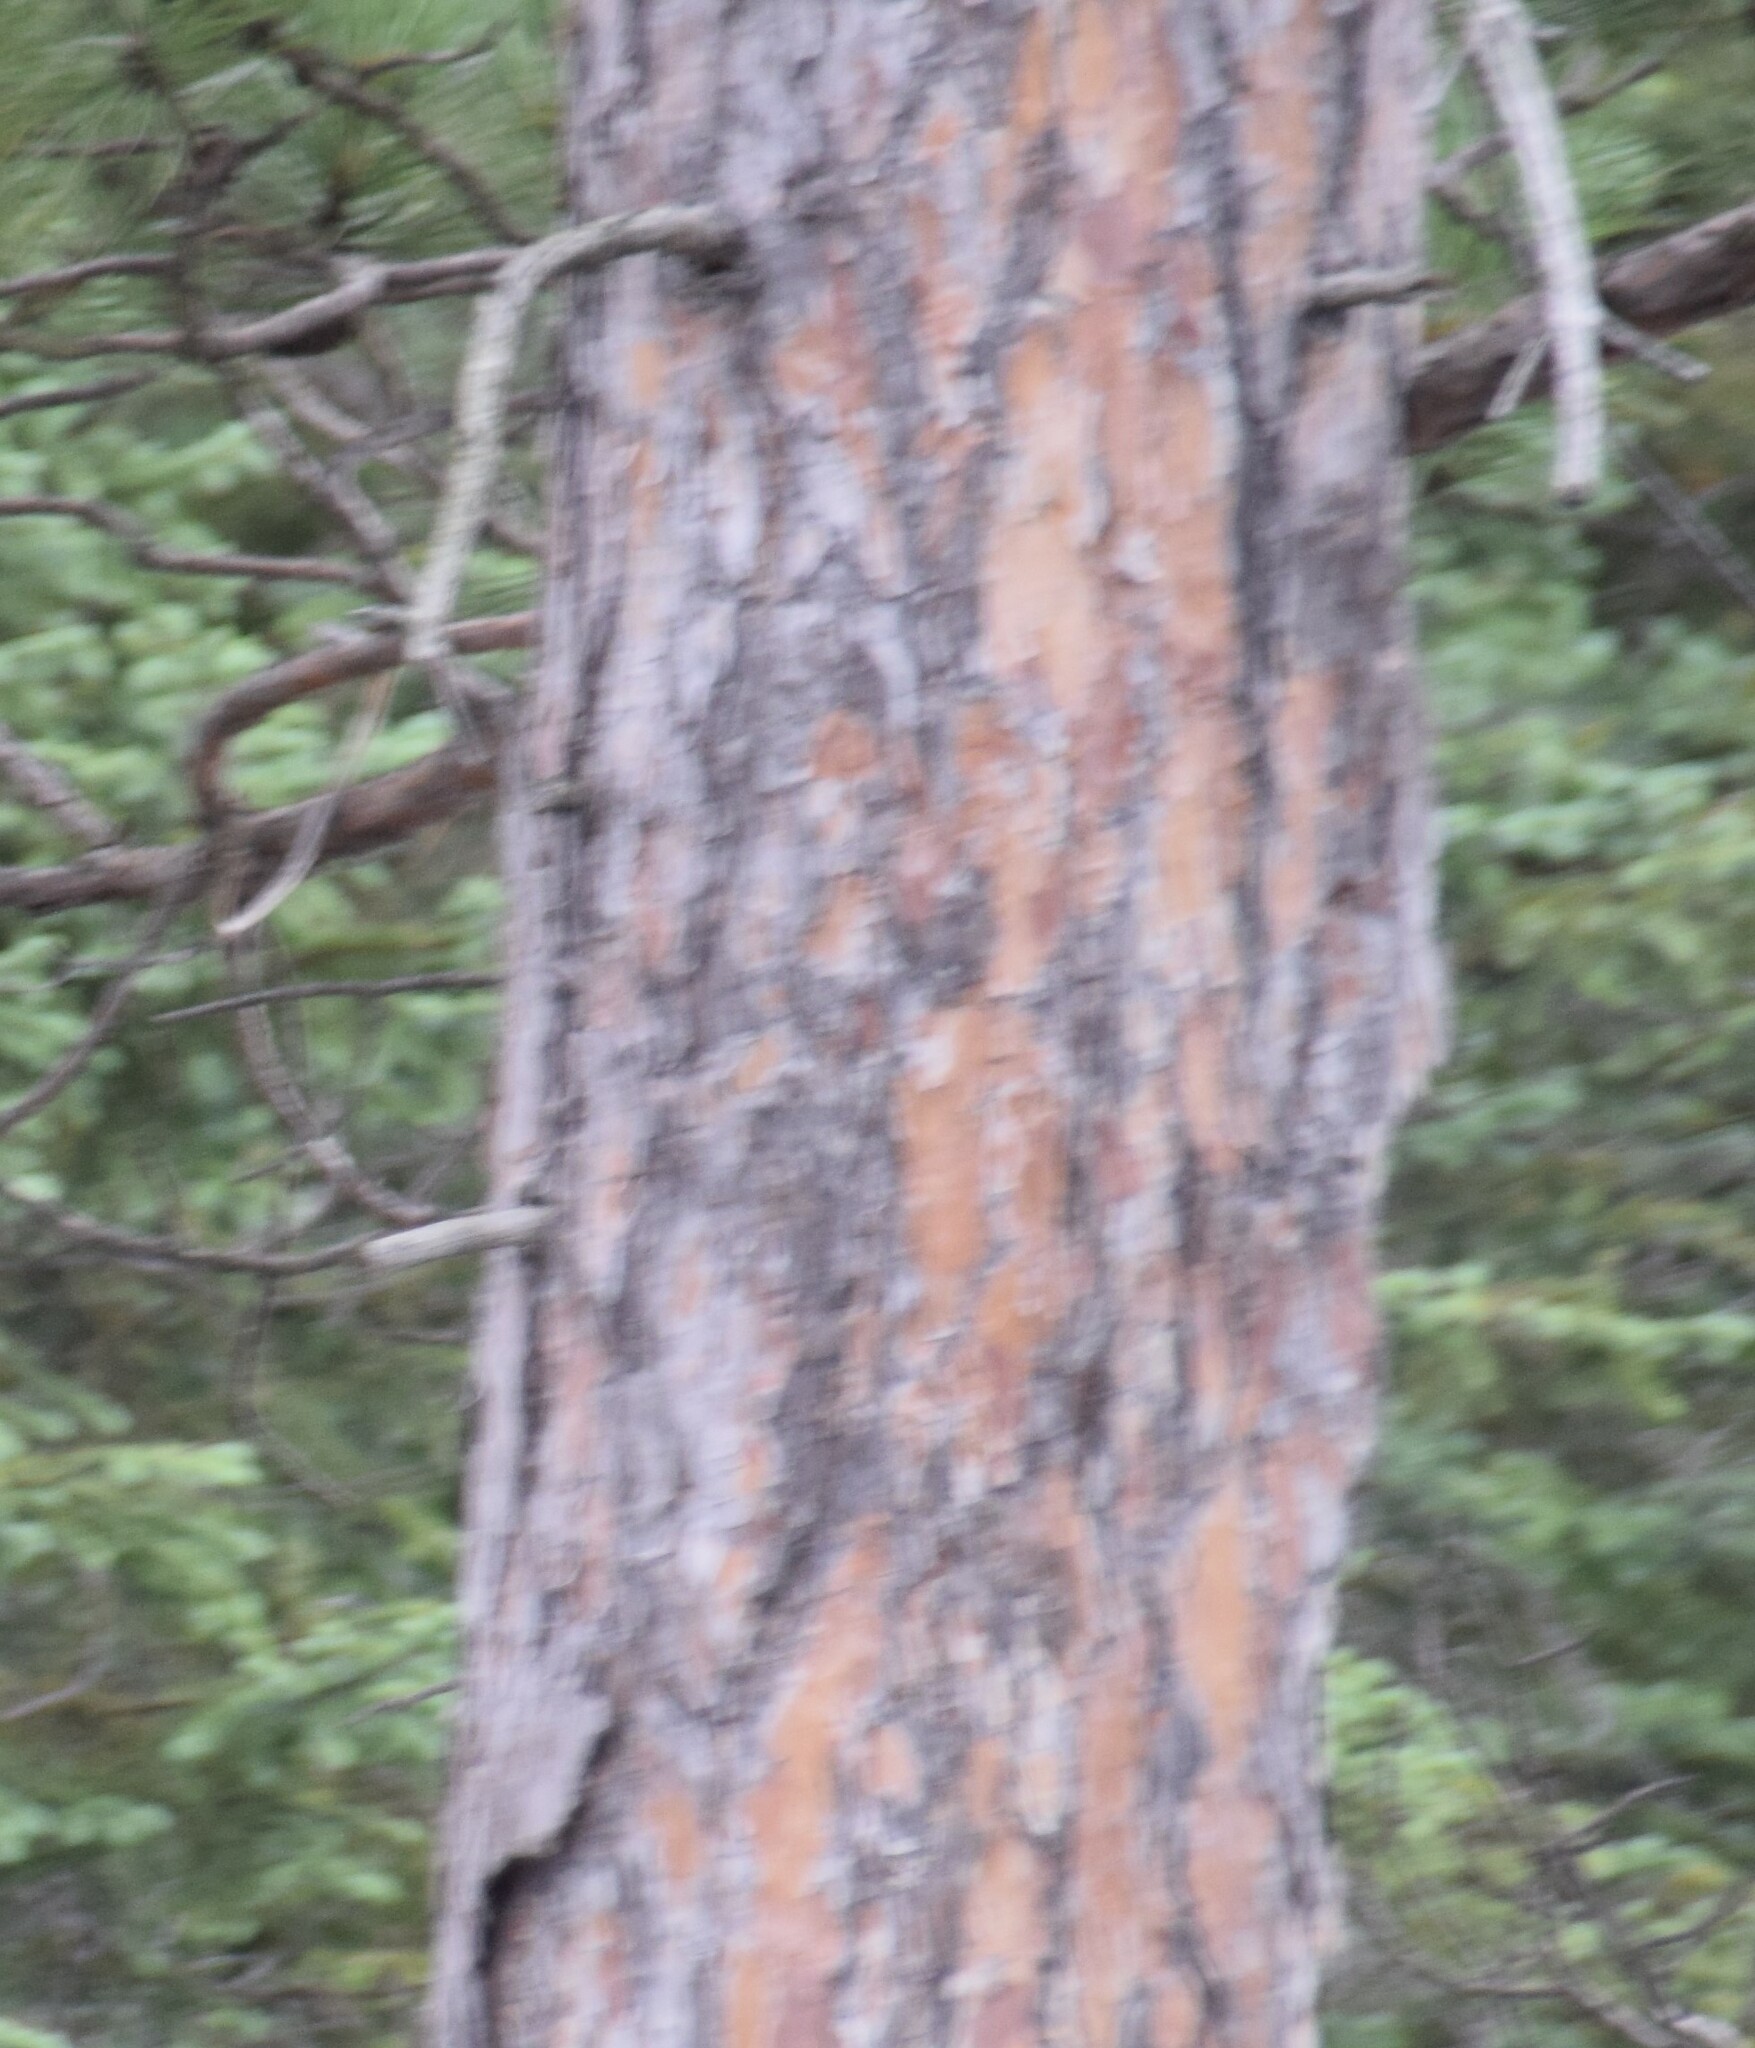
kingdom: Plantae
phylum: Tracheophyta
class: Pinopsida
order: Pinales
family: Pinaceae
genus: Pinus
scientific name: Pinus resinosa
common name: Norway pine
